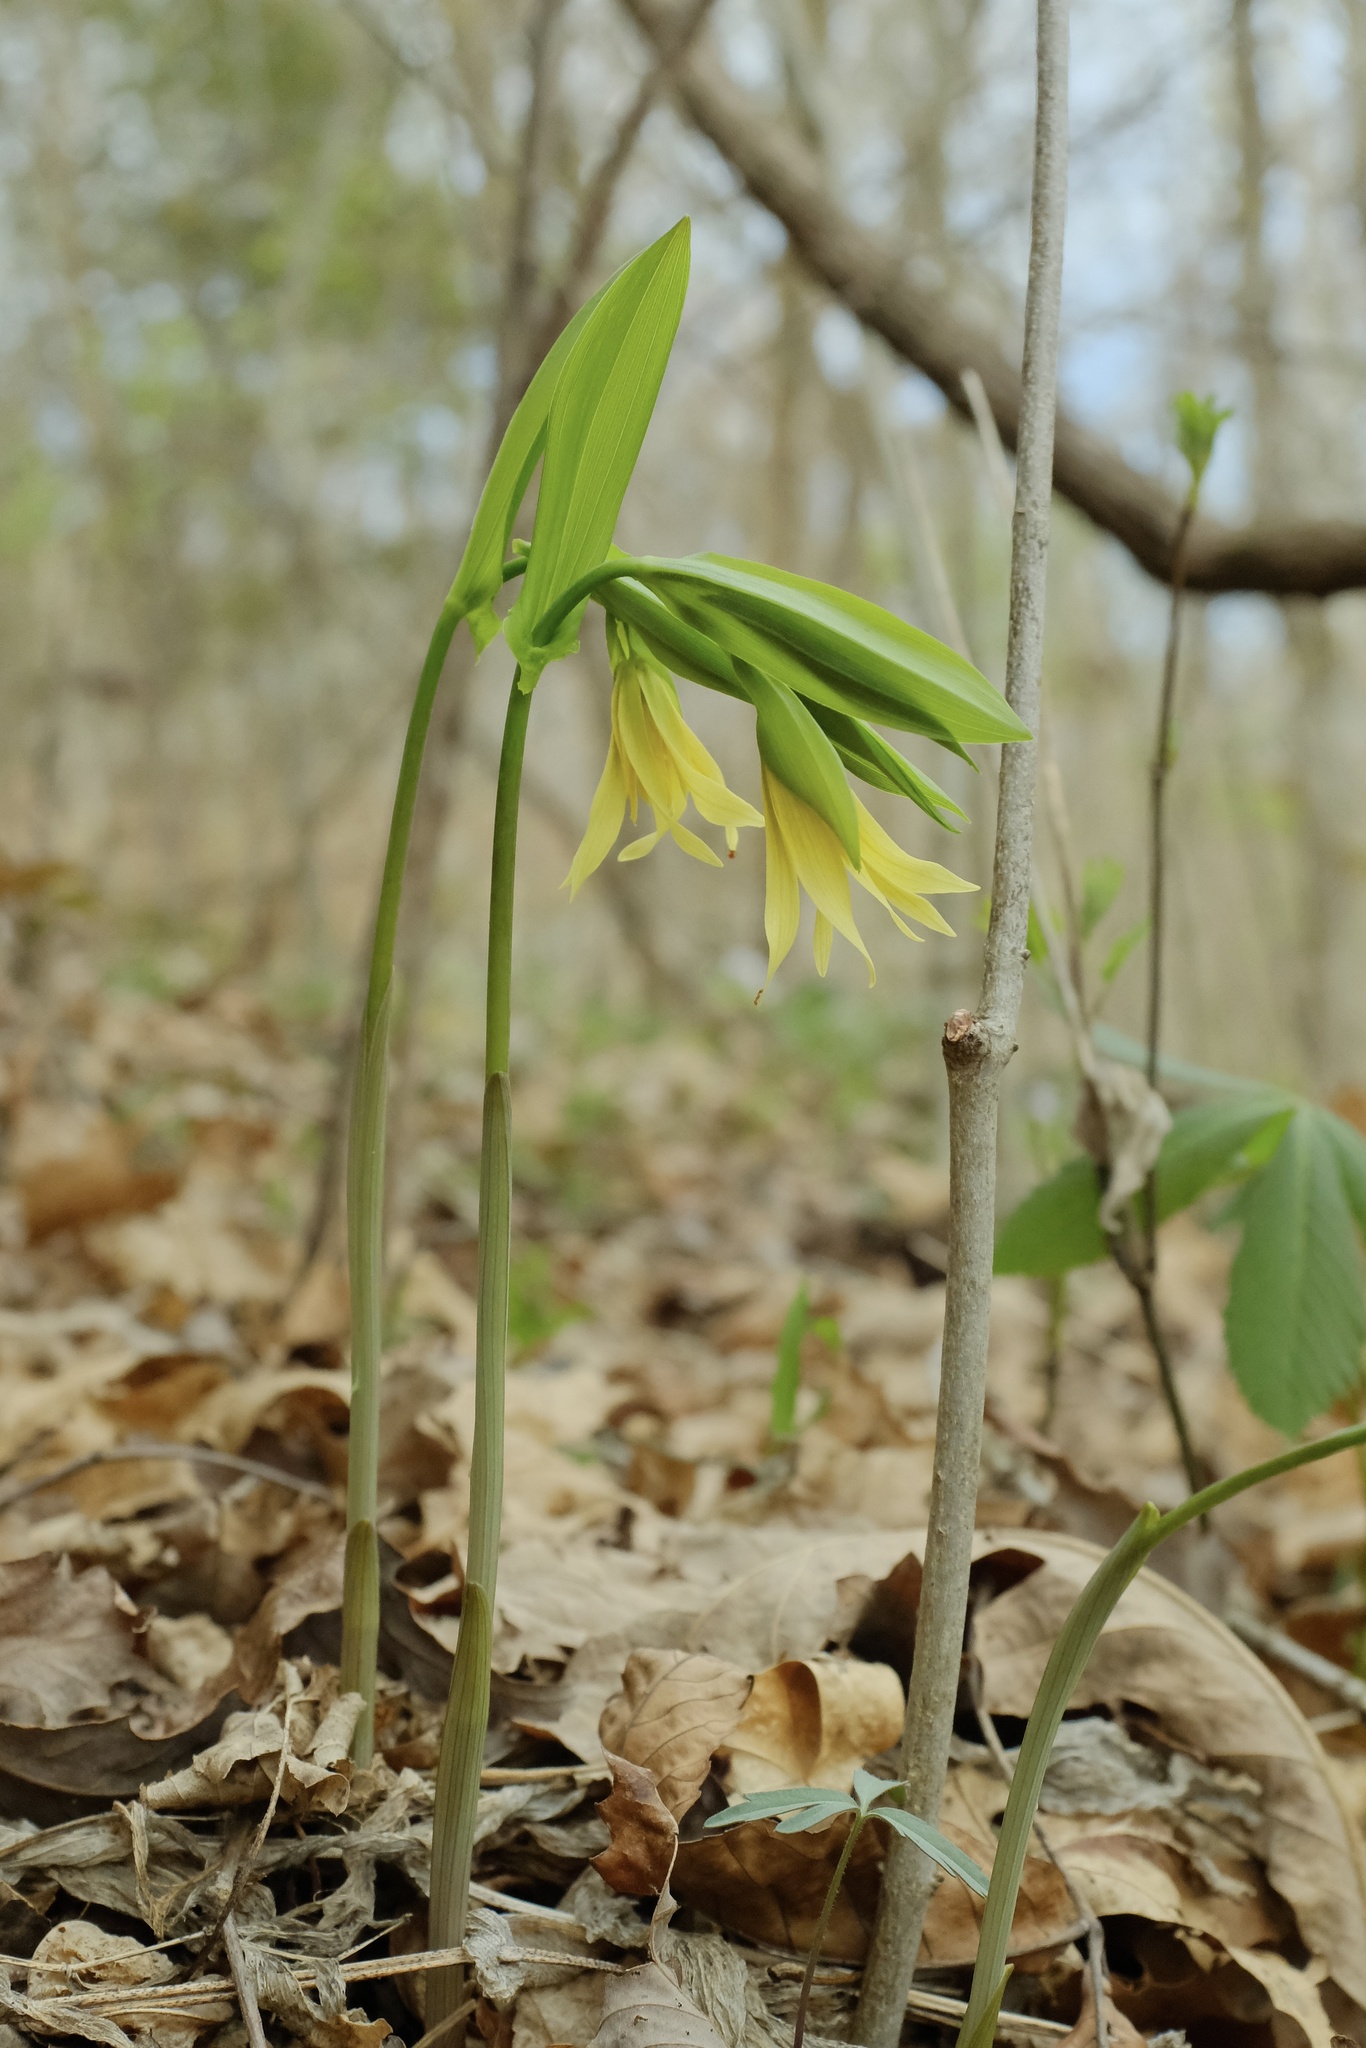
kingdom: Plantae
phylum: Tracheophyta
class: Liliopsida
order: Liliales
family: Colchicaceae
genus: Uvularia
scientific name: Uvularia grandiflora
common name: Bellwort
